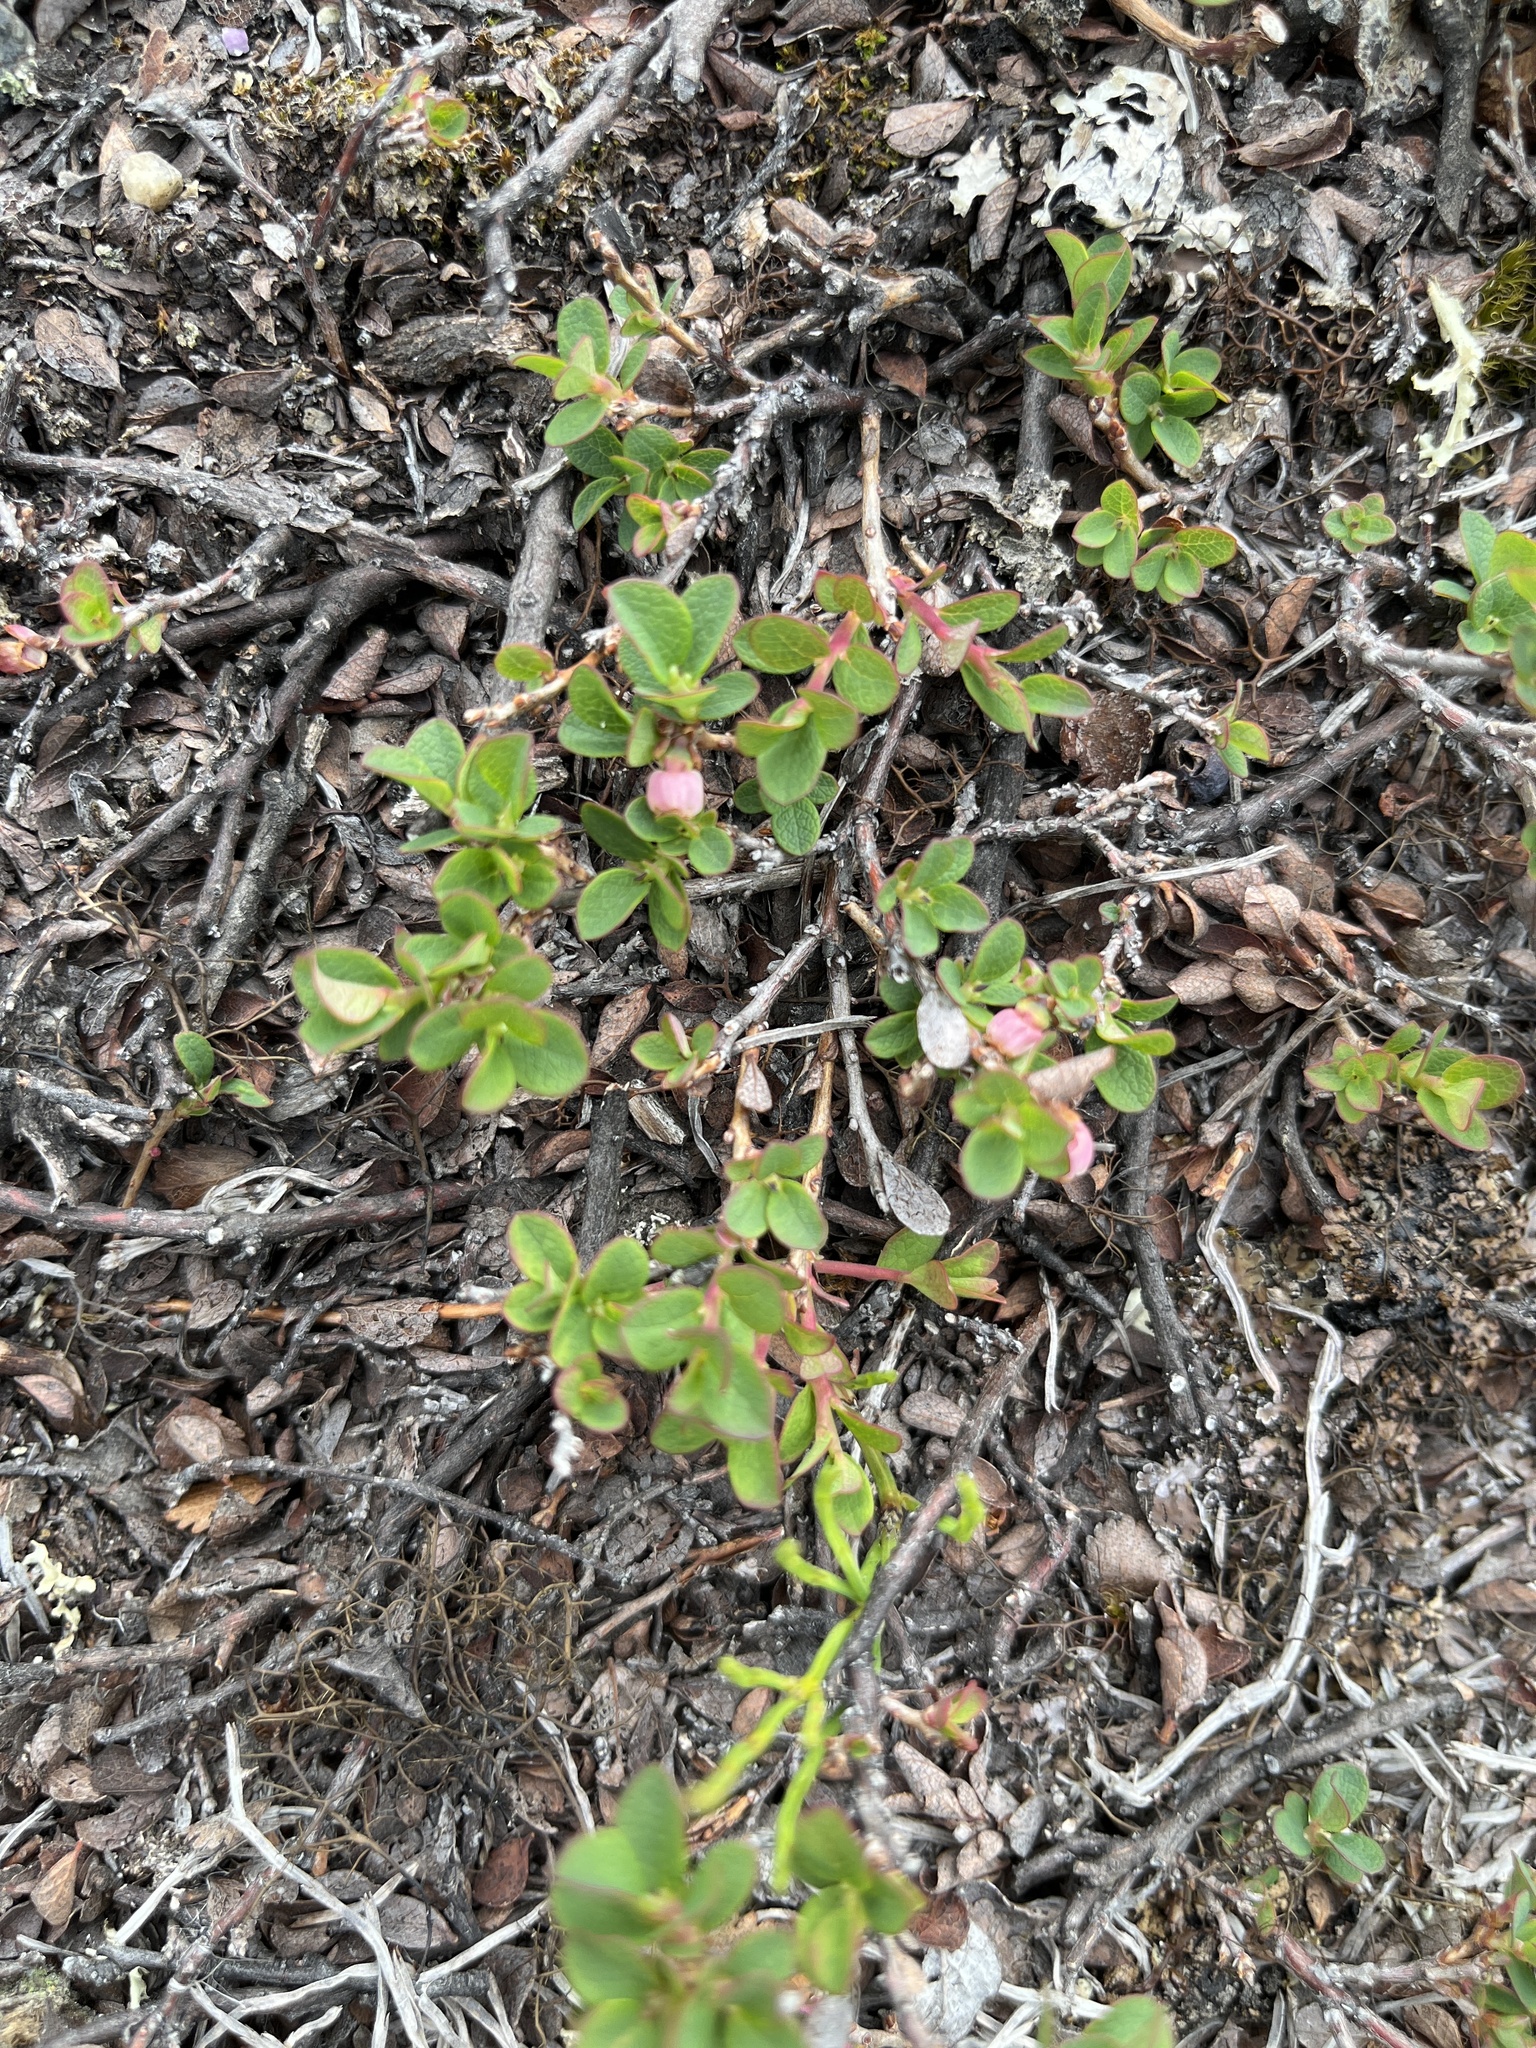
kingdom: Plantae
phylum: Tracheophyta
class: Magnoliopsida
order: Ericales
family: Ericaceae
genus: Vaccinium
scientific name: Vaccinium uliginosum
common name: Bog bilberry
